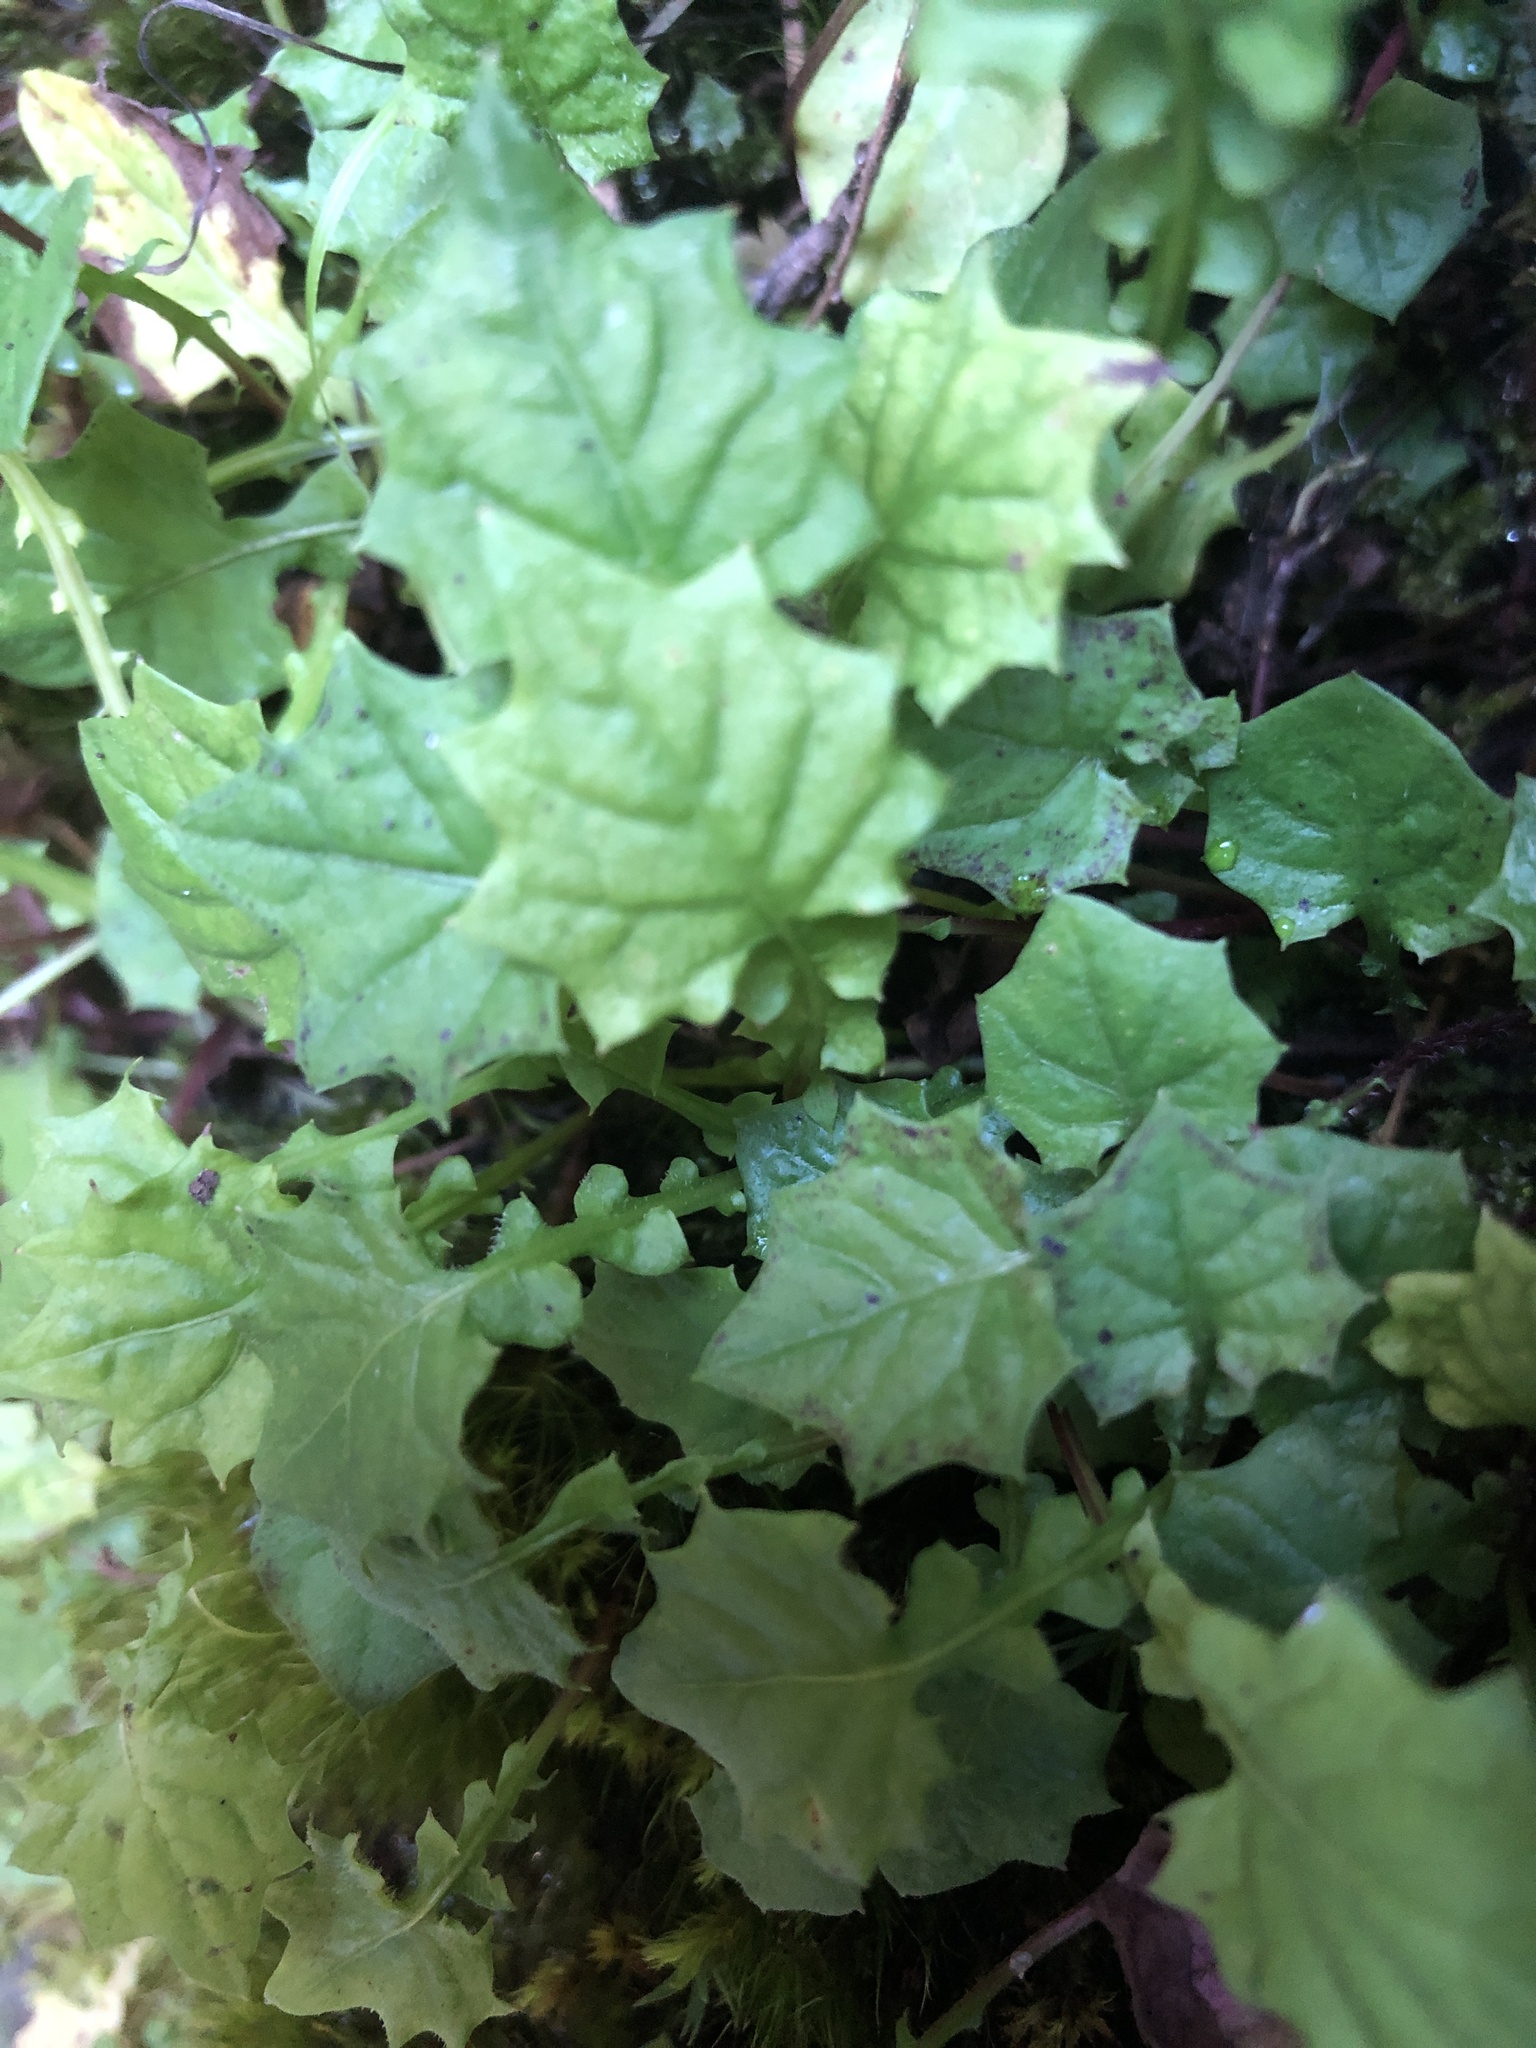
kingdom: Plantae
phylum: Tracheophyta
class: Magnoliopsida
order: Asterales
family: Asteraceae
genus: Lapsanastrum
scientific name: Lapsanastrum takasei
